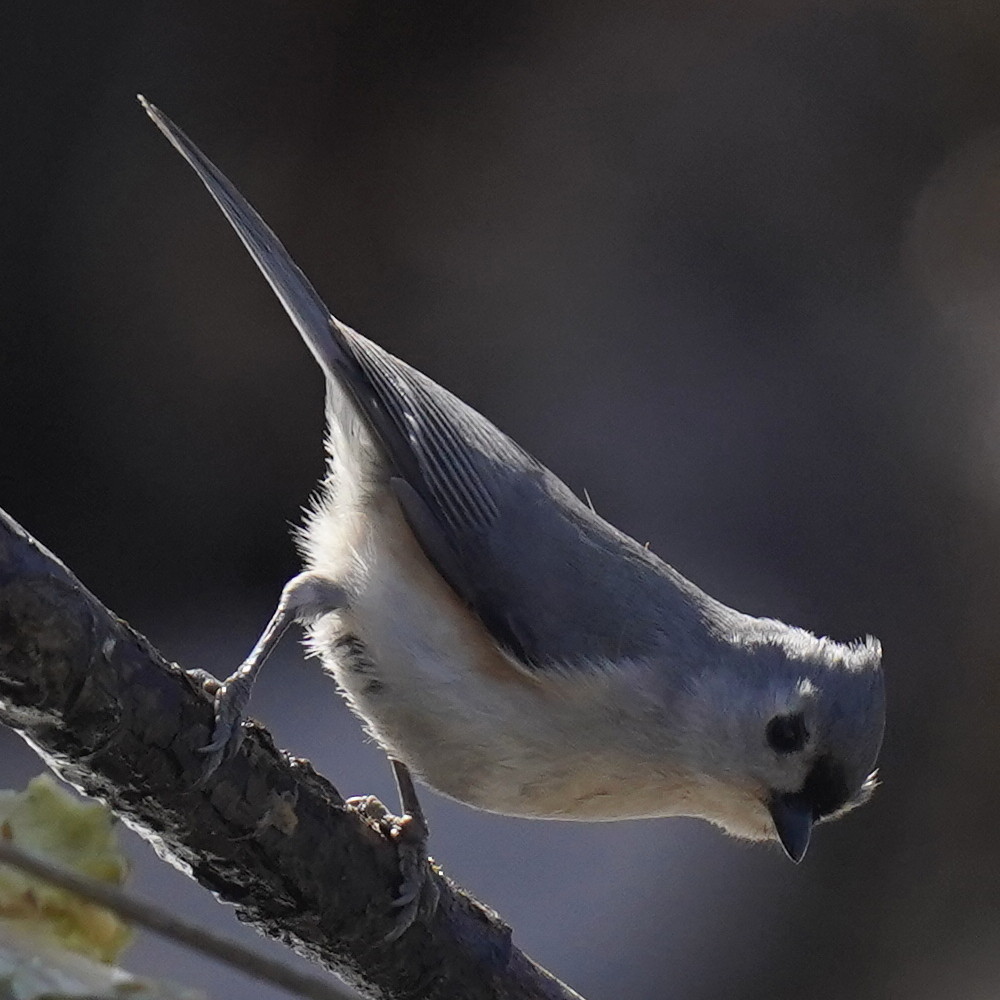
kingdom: Animalia
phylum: Chordata
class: Aves
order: Passeriformes
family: Paridae
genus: Baeolophus
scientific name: Baeolophus bicolor
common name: Tufted titmouse
